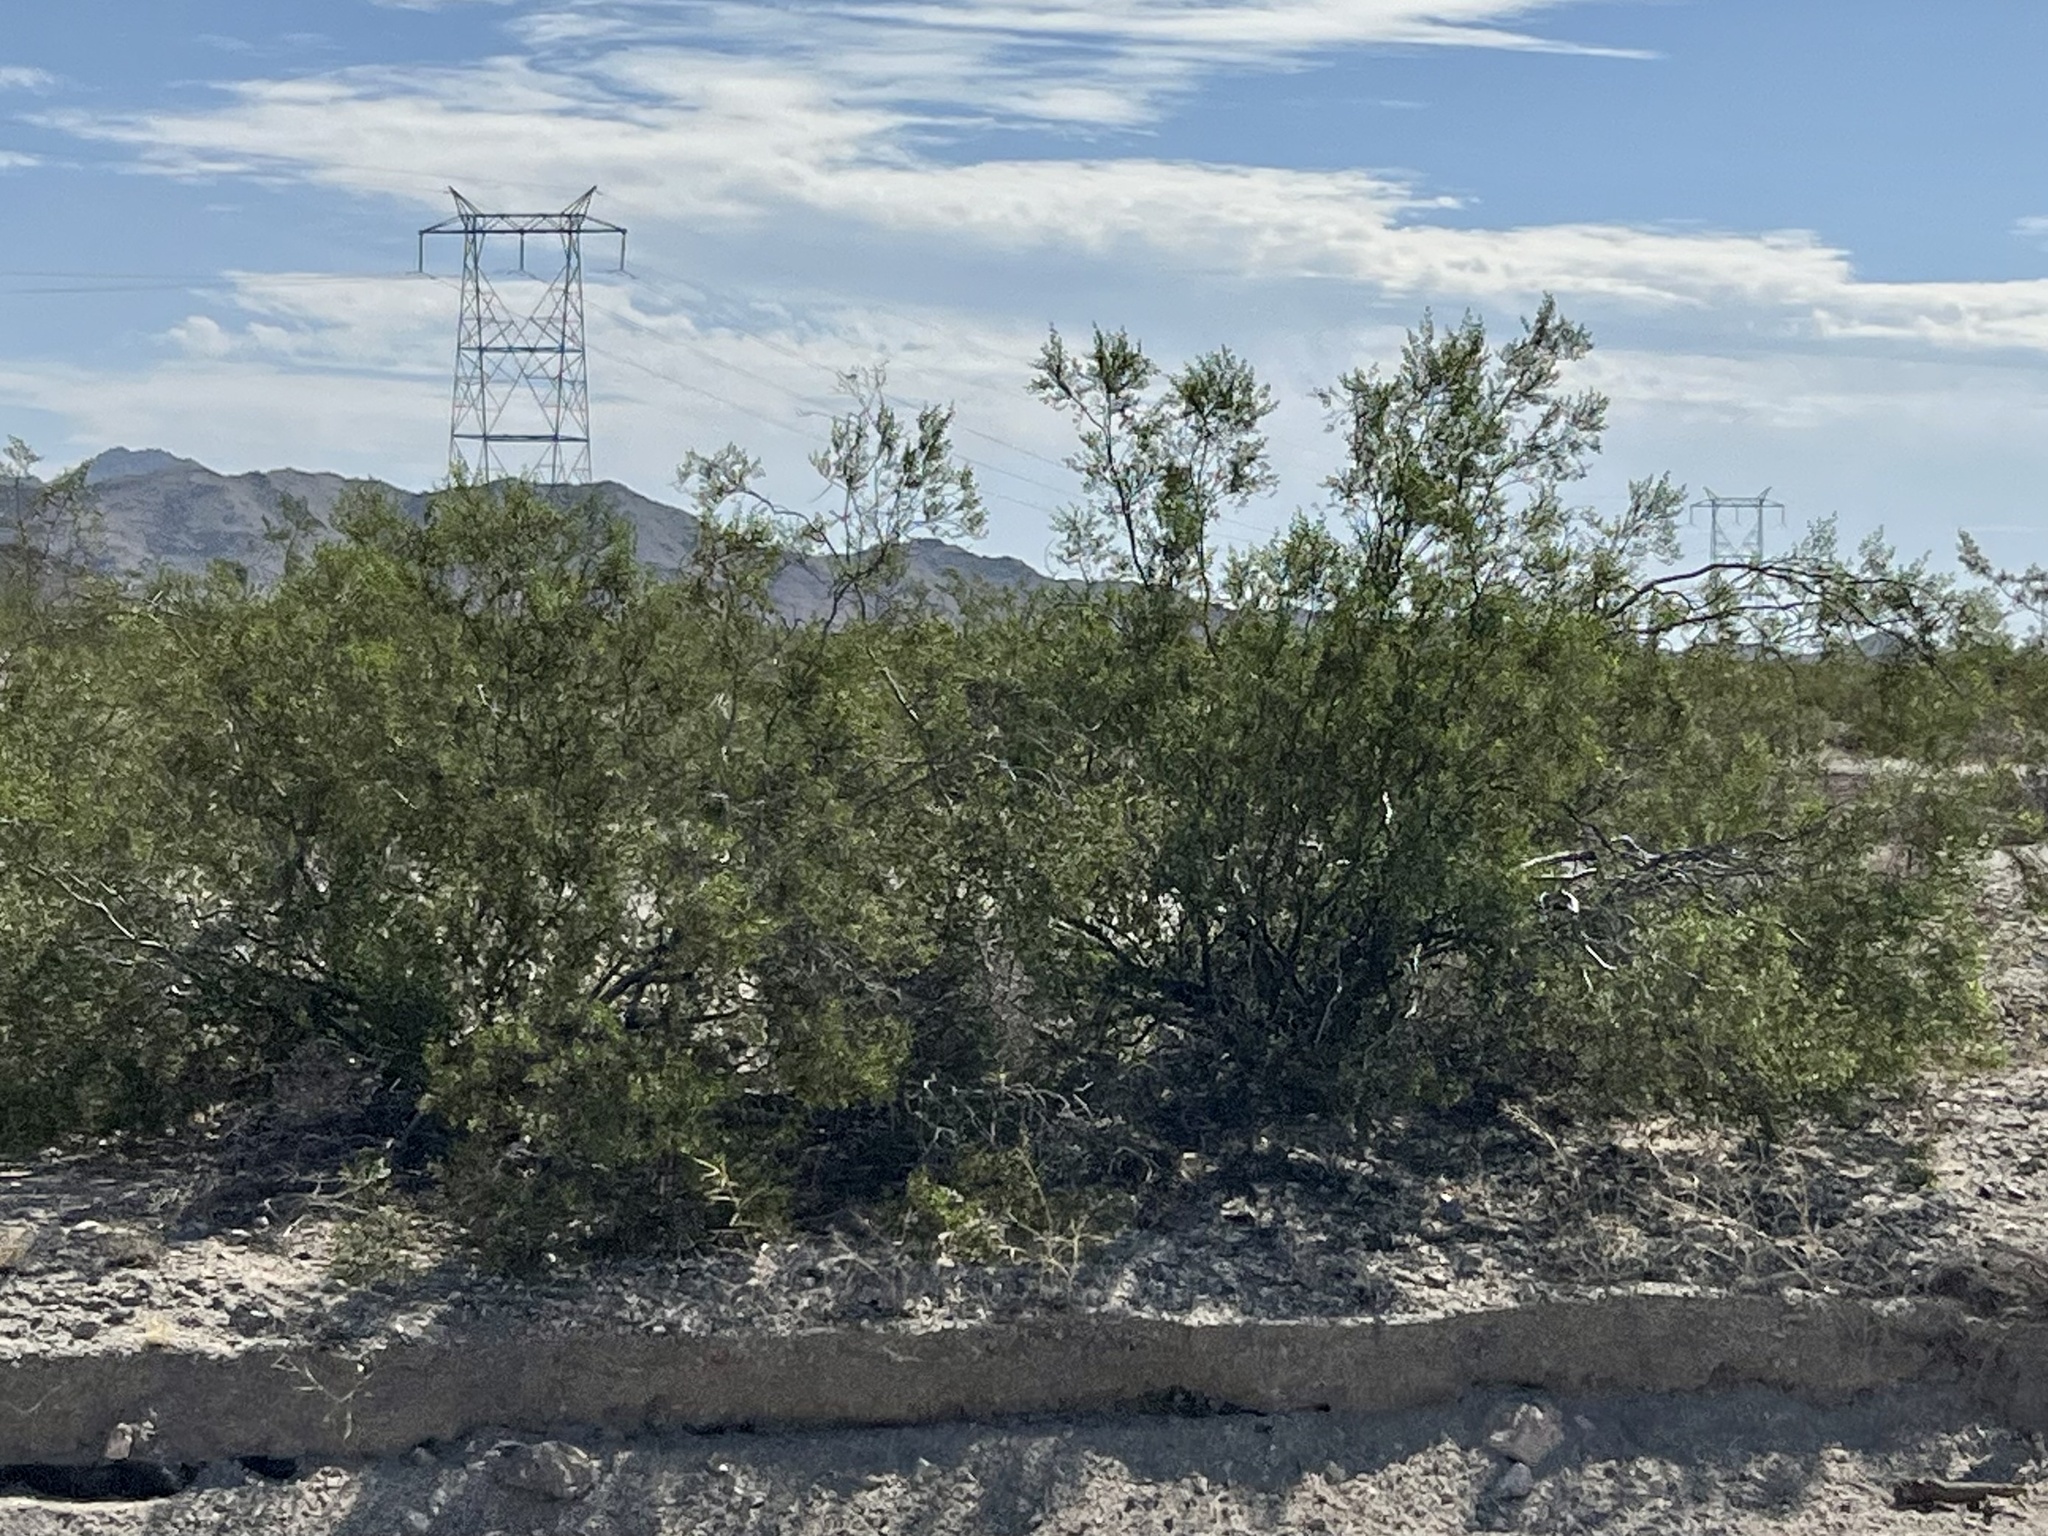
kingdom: Plantae
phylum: Tracheophyta
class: Magnoliopsida
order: Zygophyllales
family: Zygophyllaceae
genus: Larrea
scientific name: Larrea tridentata
